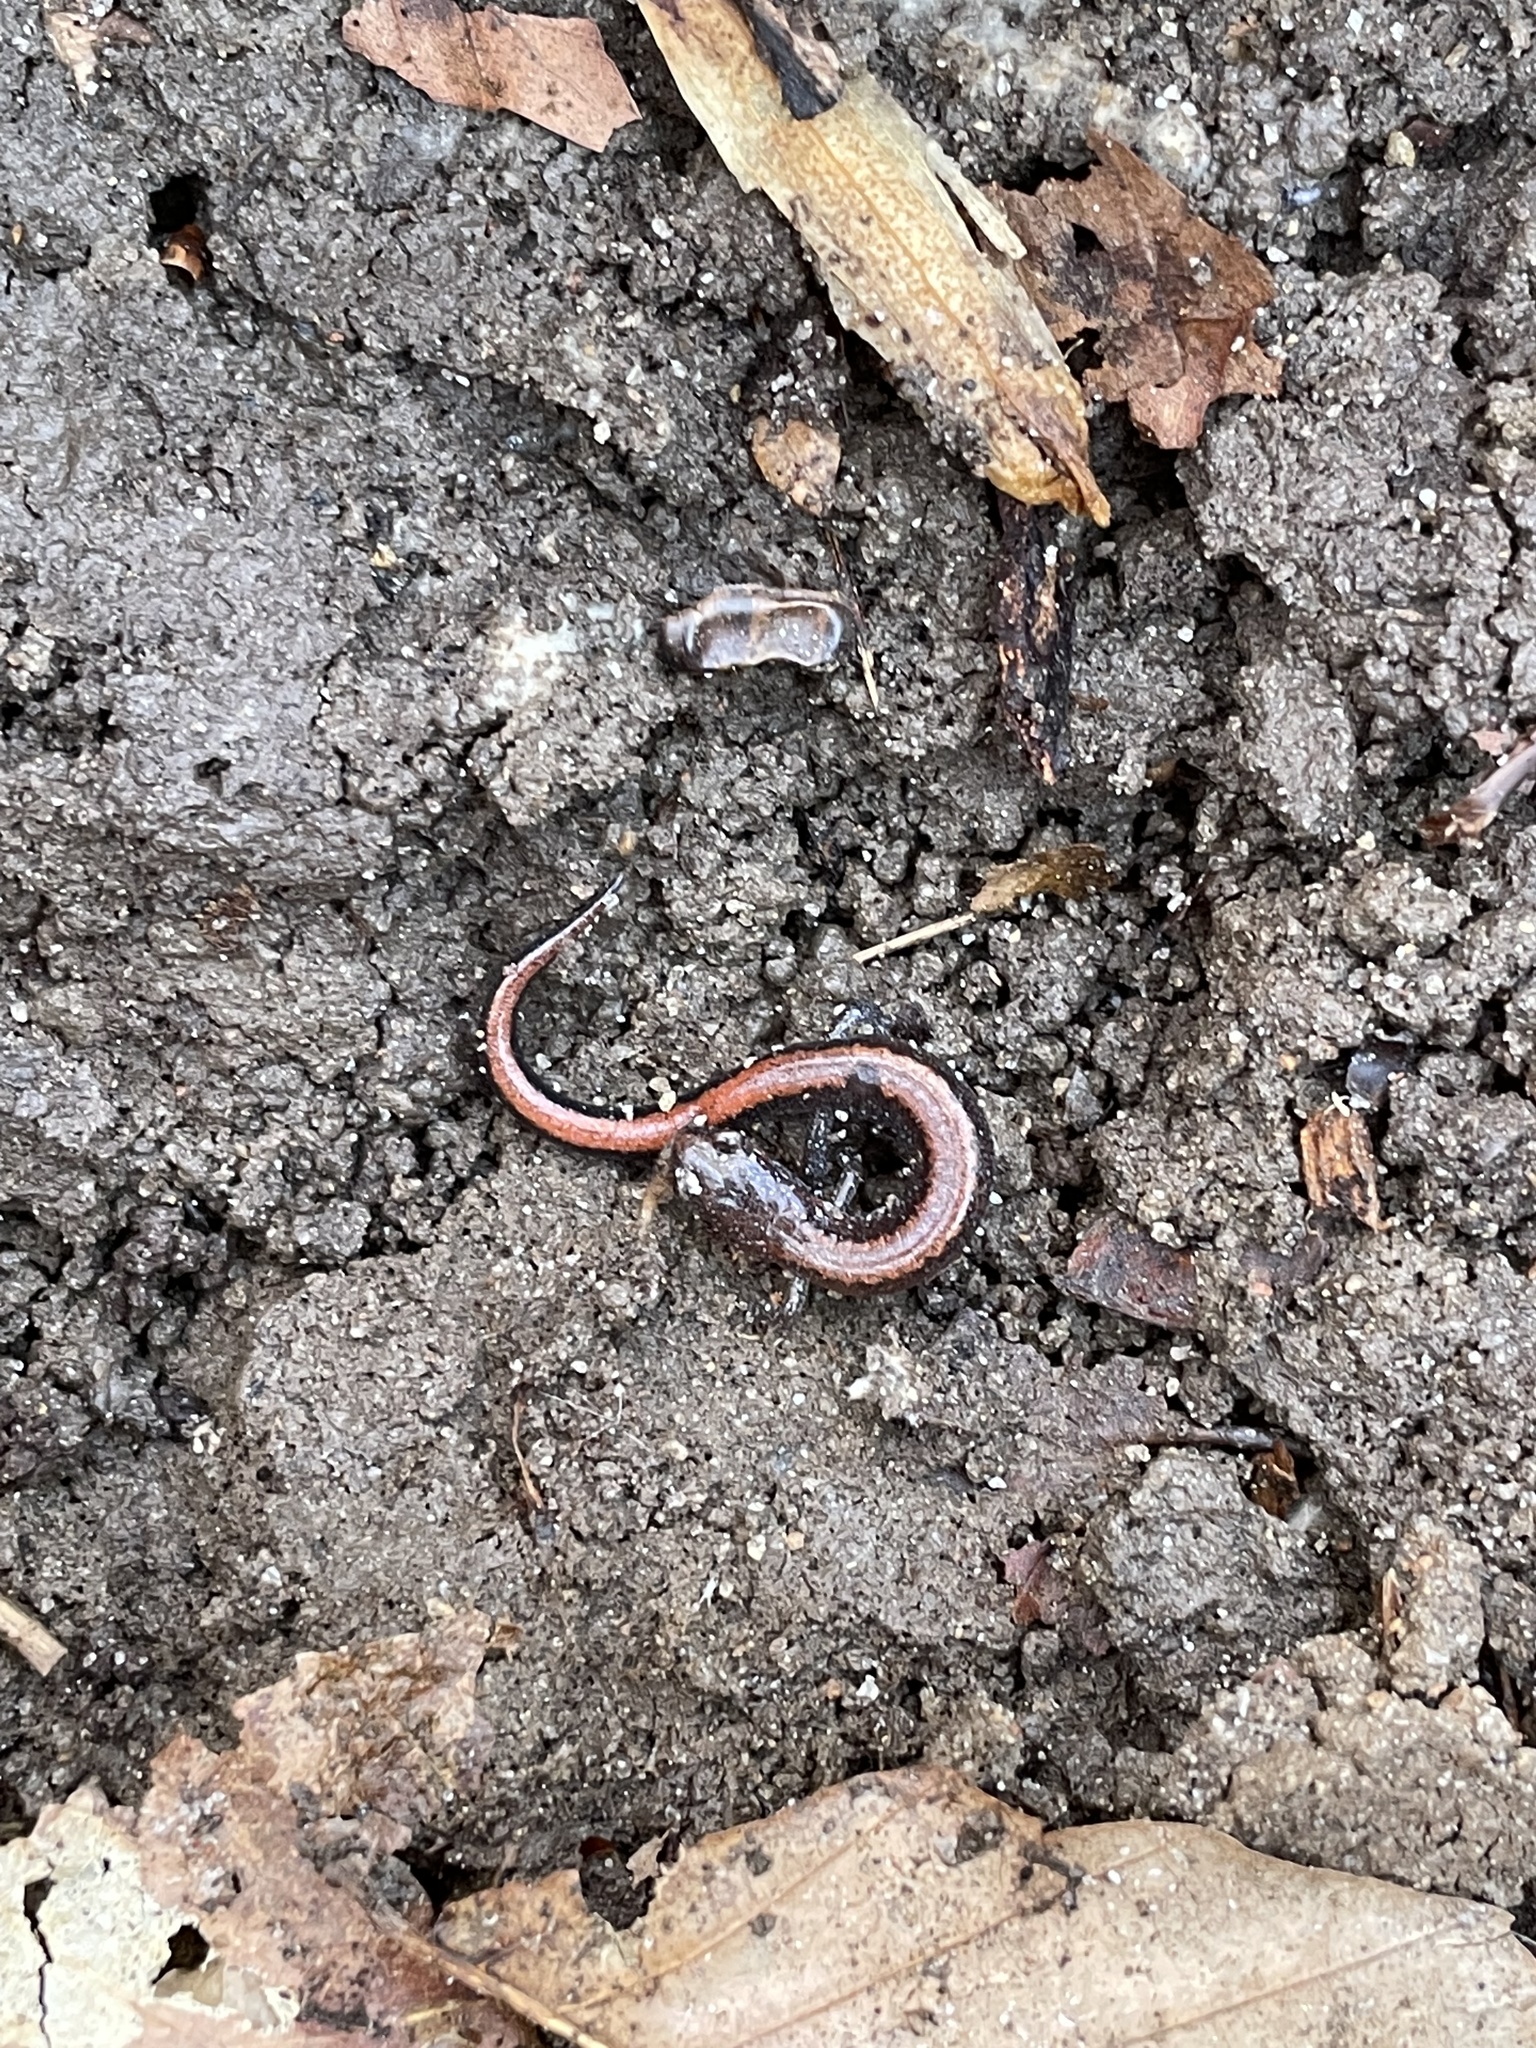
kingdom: Animalia
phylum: Chordata
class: Amphibia
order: Caudata
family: Plethodontidae
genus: Plethodon
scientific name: Plethodon serratus
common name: Southern red-backed salamander
